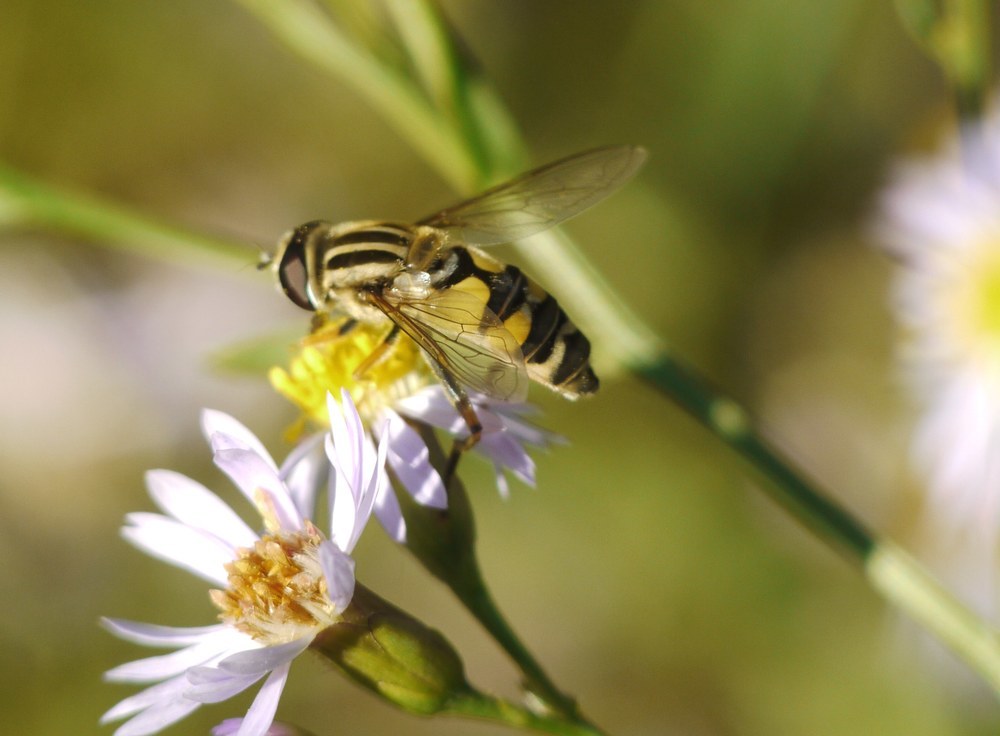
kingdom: Animalia
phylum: Arthropoda
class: Insecta
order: Diptera
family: Syrphidae
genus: Helophilus
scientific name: Helophilus trivittatus
